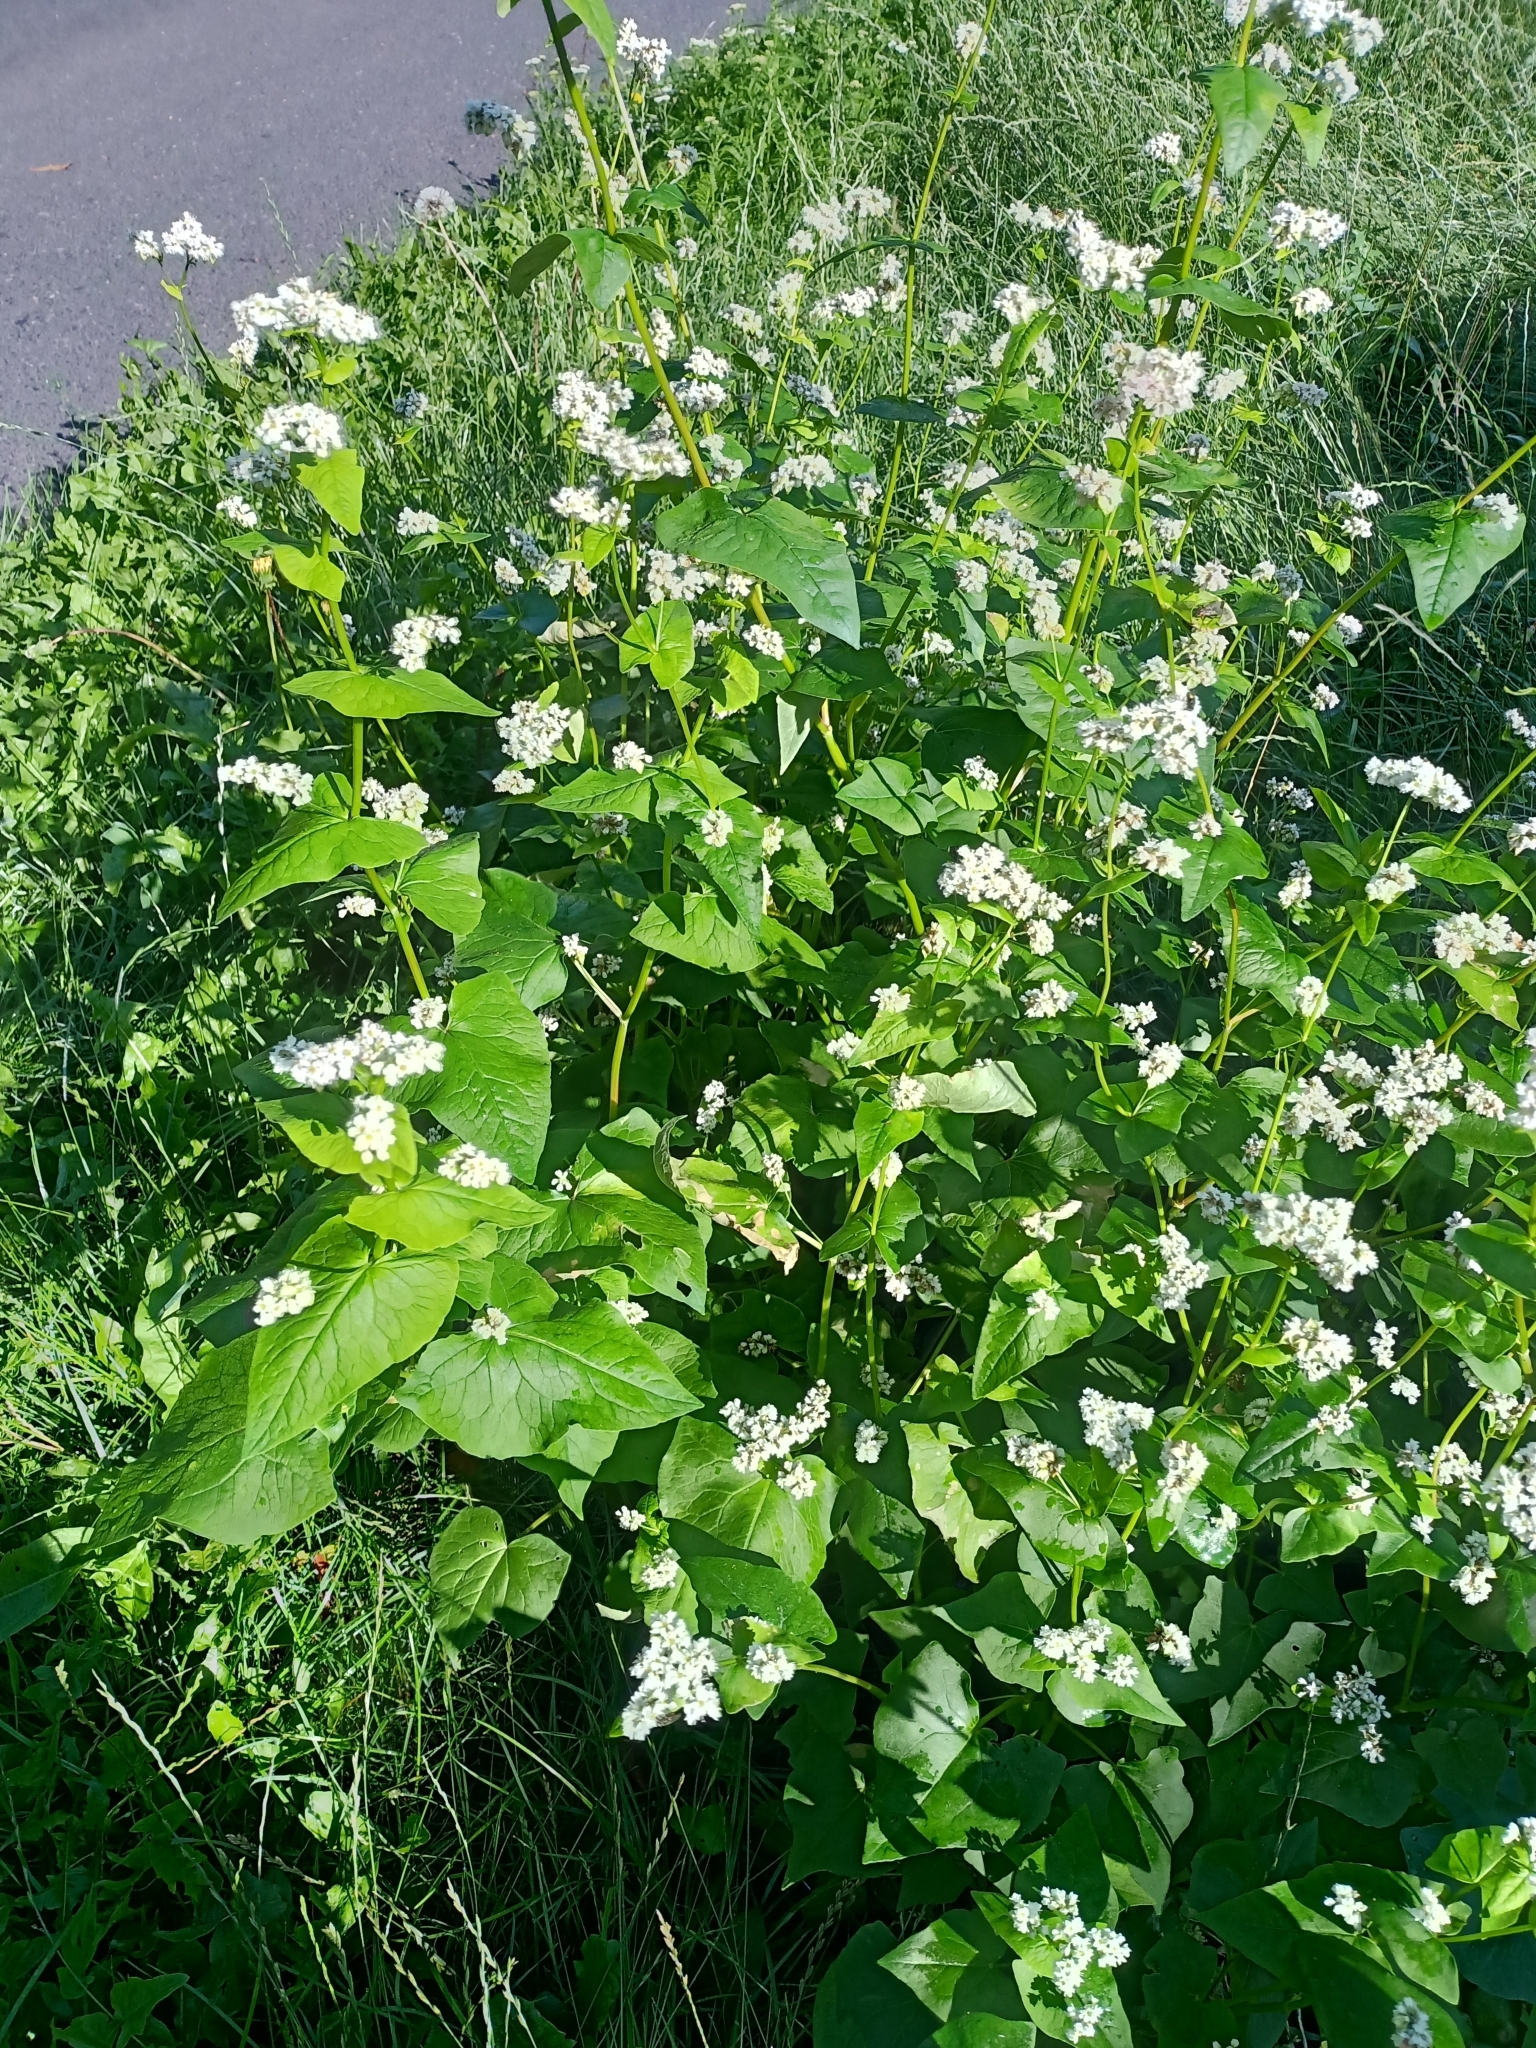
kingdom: Plantae
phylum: Tracheophyta
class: Magnoliopsida
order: Caryophyllales
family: Polygonaceae
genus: Fagopyrum
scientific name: Fagopyrum esculentum
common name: Buckwheat
